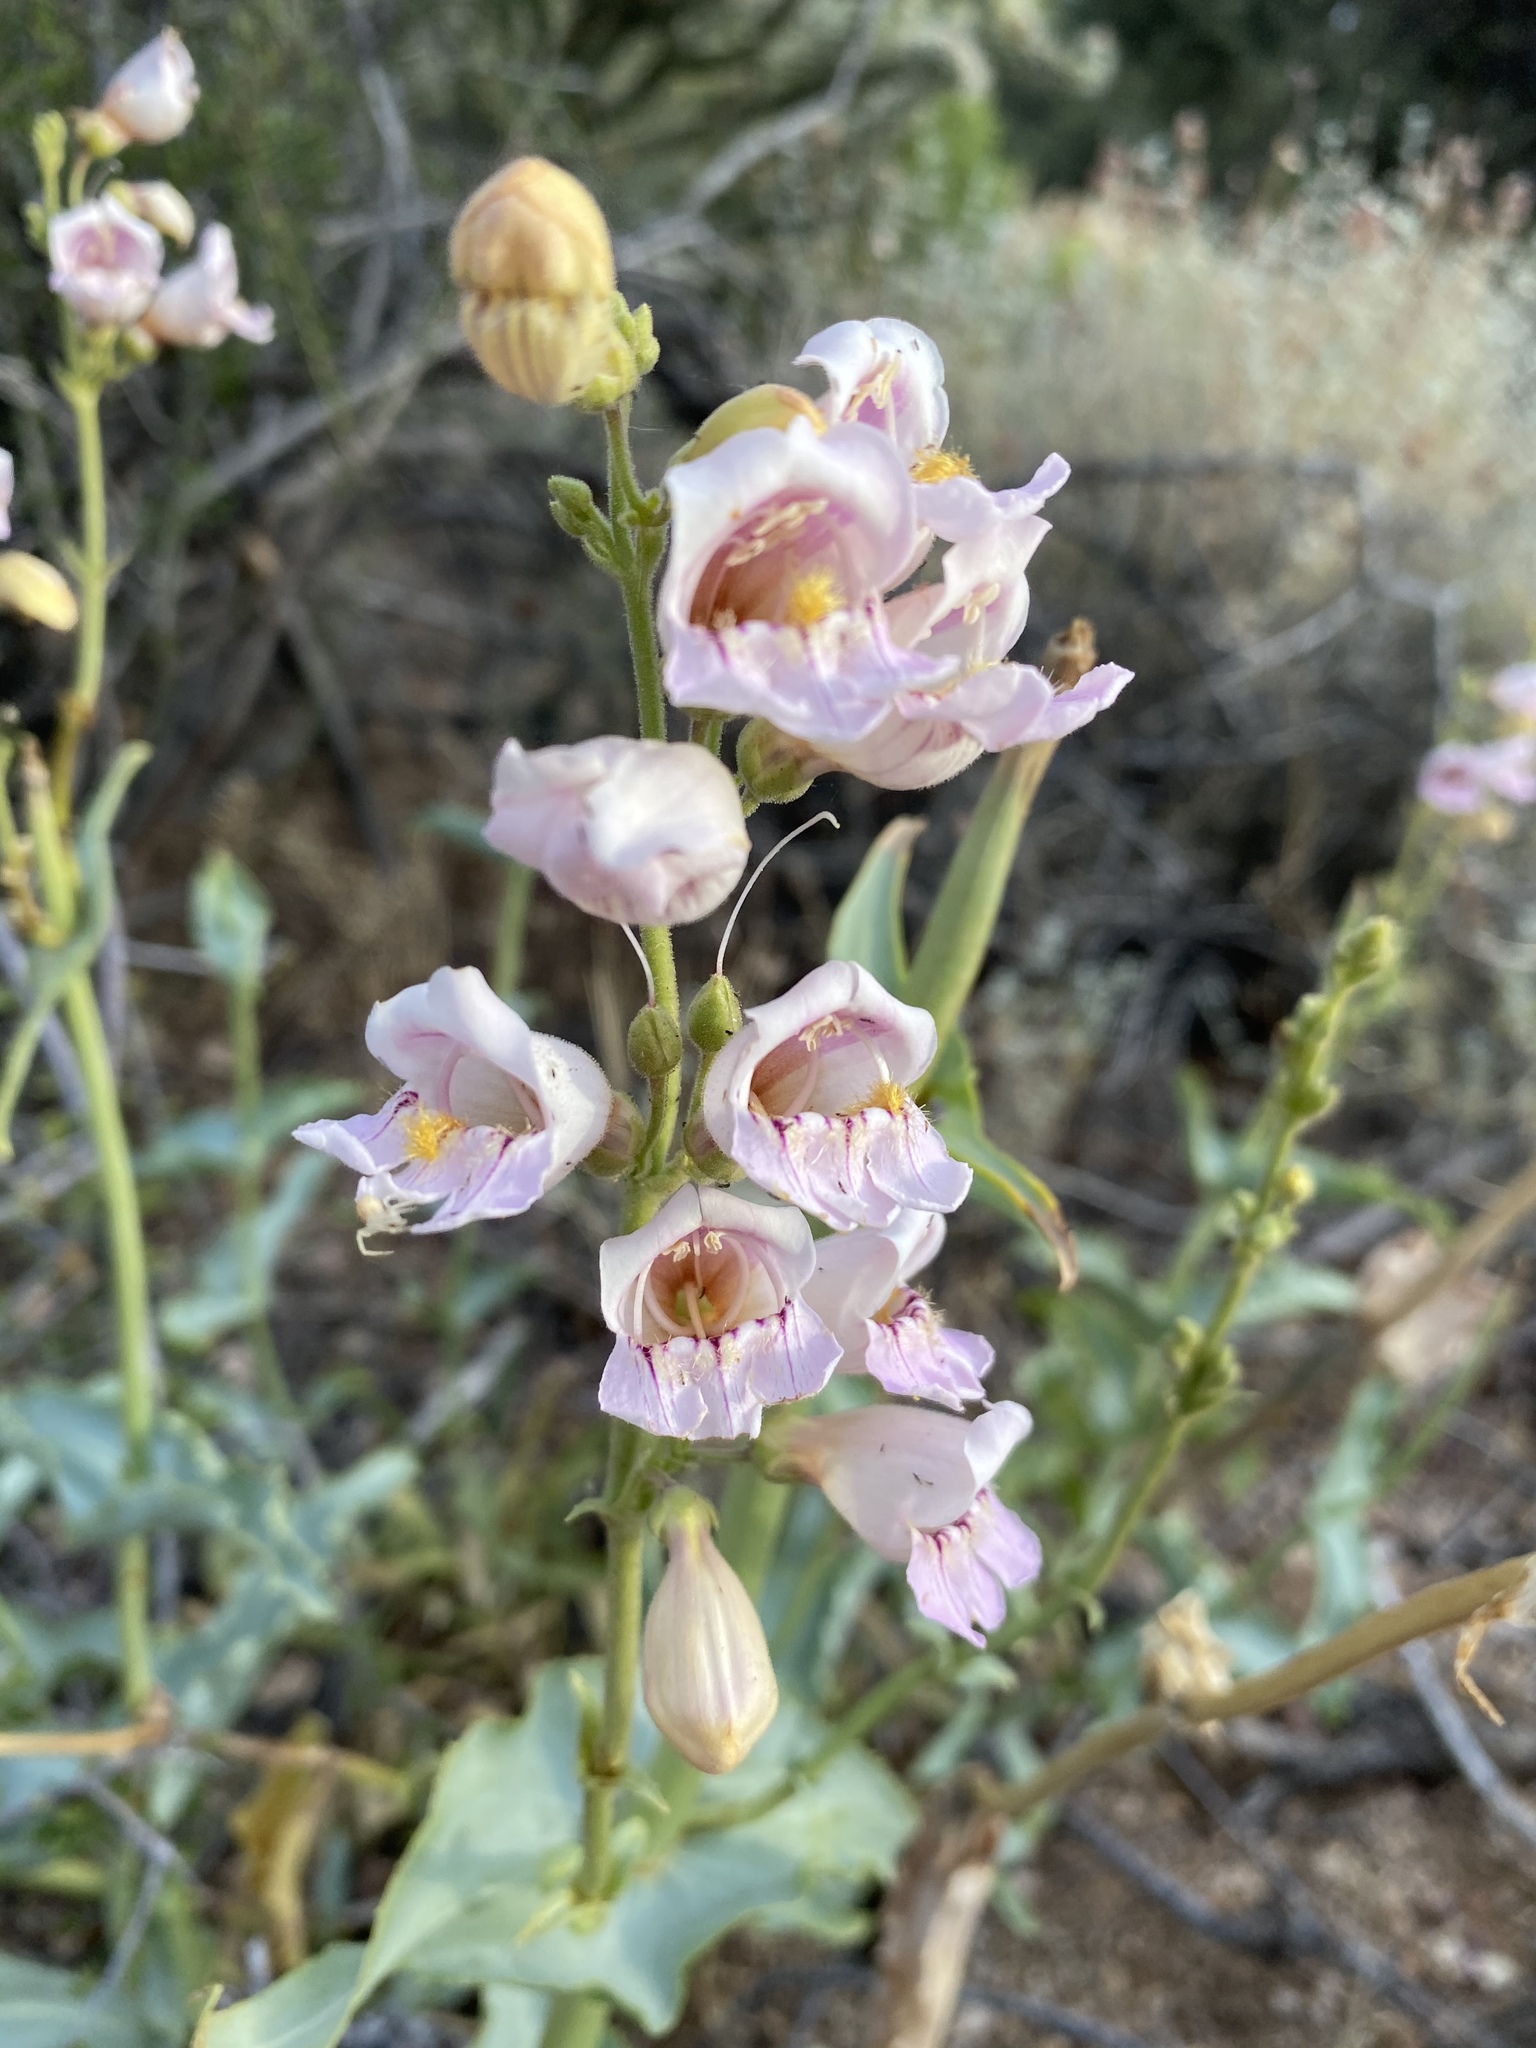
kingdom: Plantae
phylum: Tracheophyta
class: Magnoliopsida
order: Lamiales
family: Plantaginaceae
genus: Penstemon
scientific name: Penstemon palmeri
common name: Palmer penstemon
